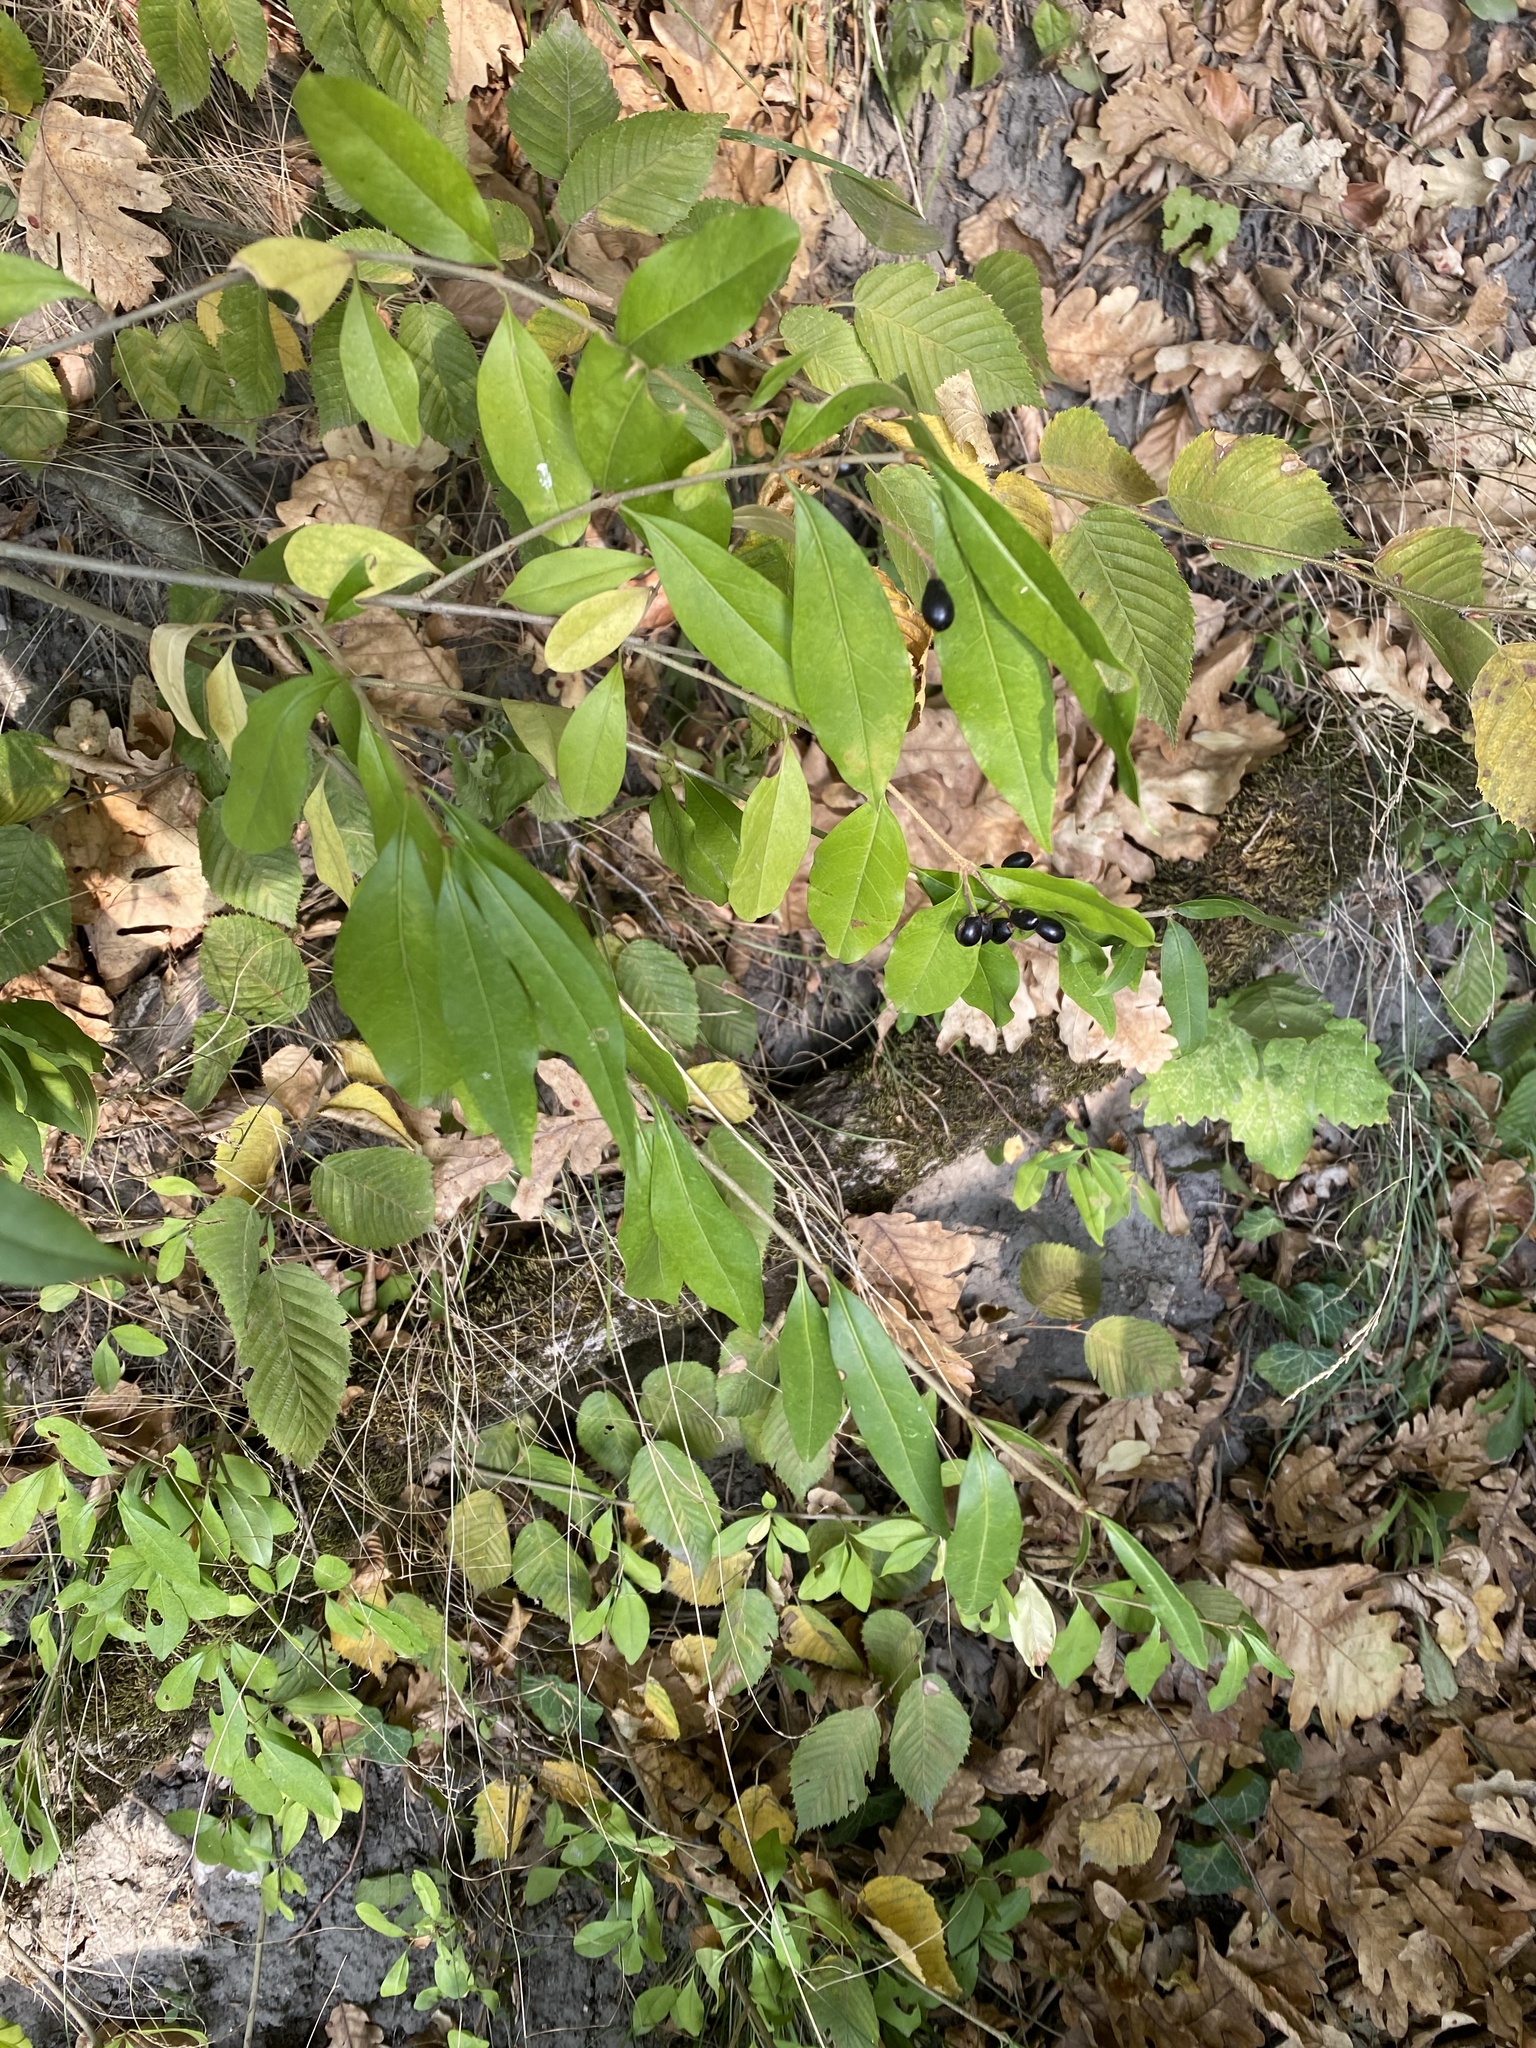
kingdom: Plantae
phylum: Tracheophyta
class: Magnoliopsida
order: Lamiales
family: Oleaceae
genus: Ligustrum
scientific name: Ligustrum vulgare
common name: Wild privet
